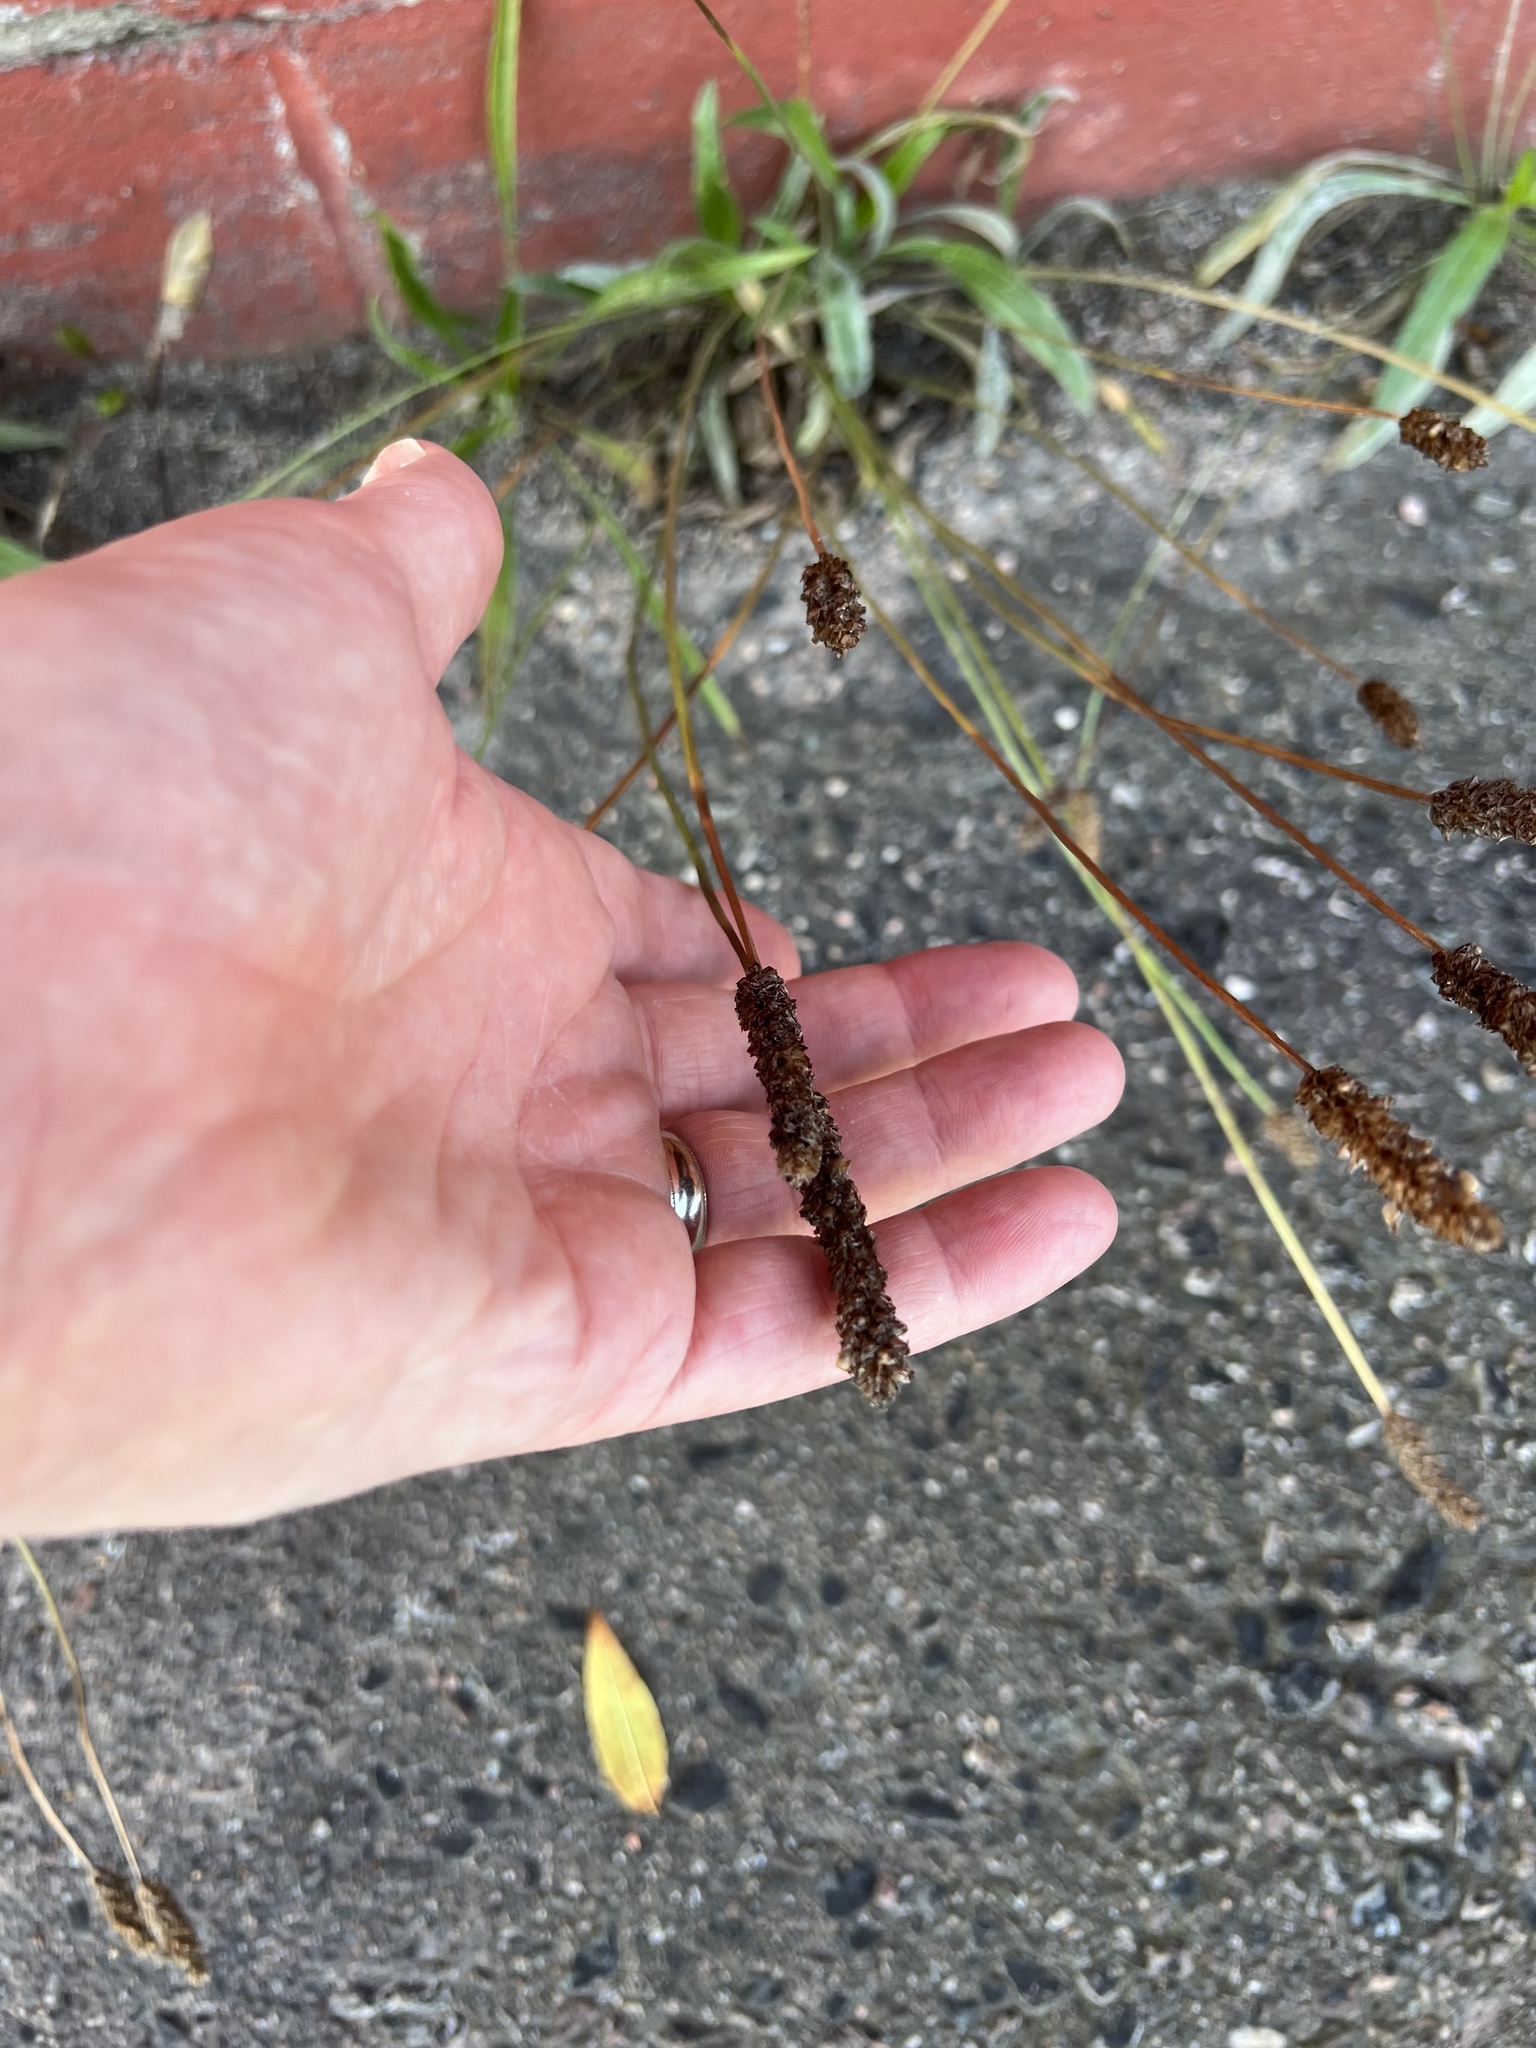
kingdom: Plantae
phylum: Tracheophyta
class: Magnoliopsida
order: Lamiales
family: Plantaginaceae
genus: Plantago
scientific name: Plantago lanceolata
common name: Ribwort plantain
